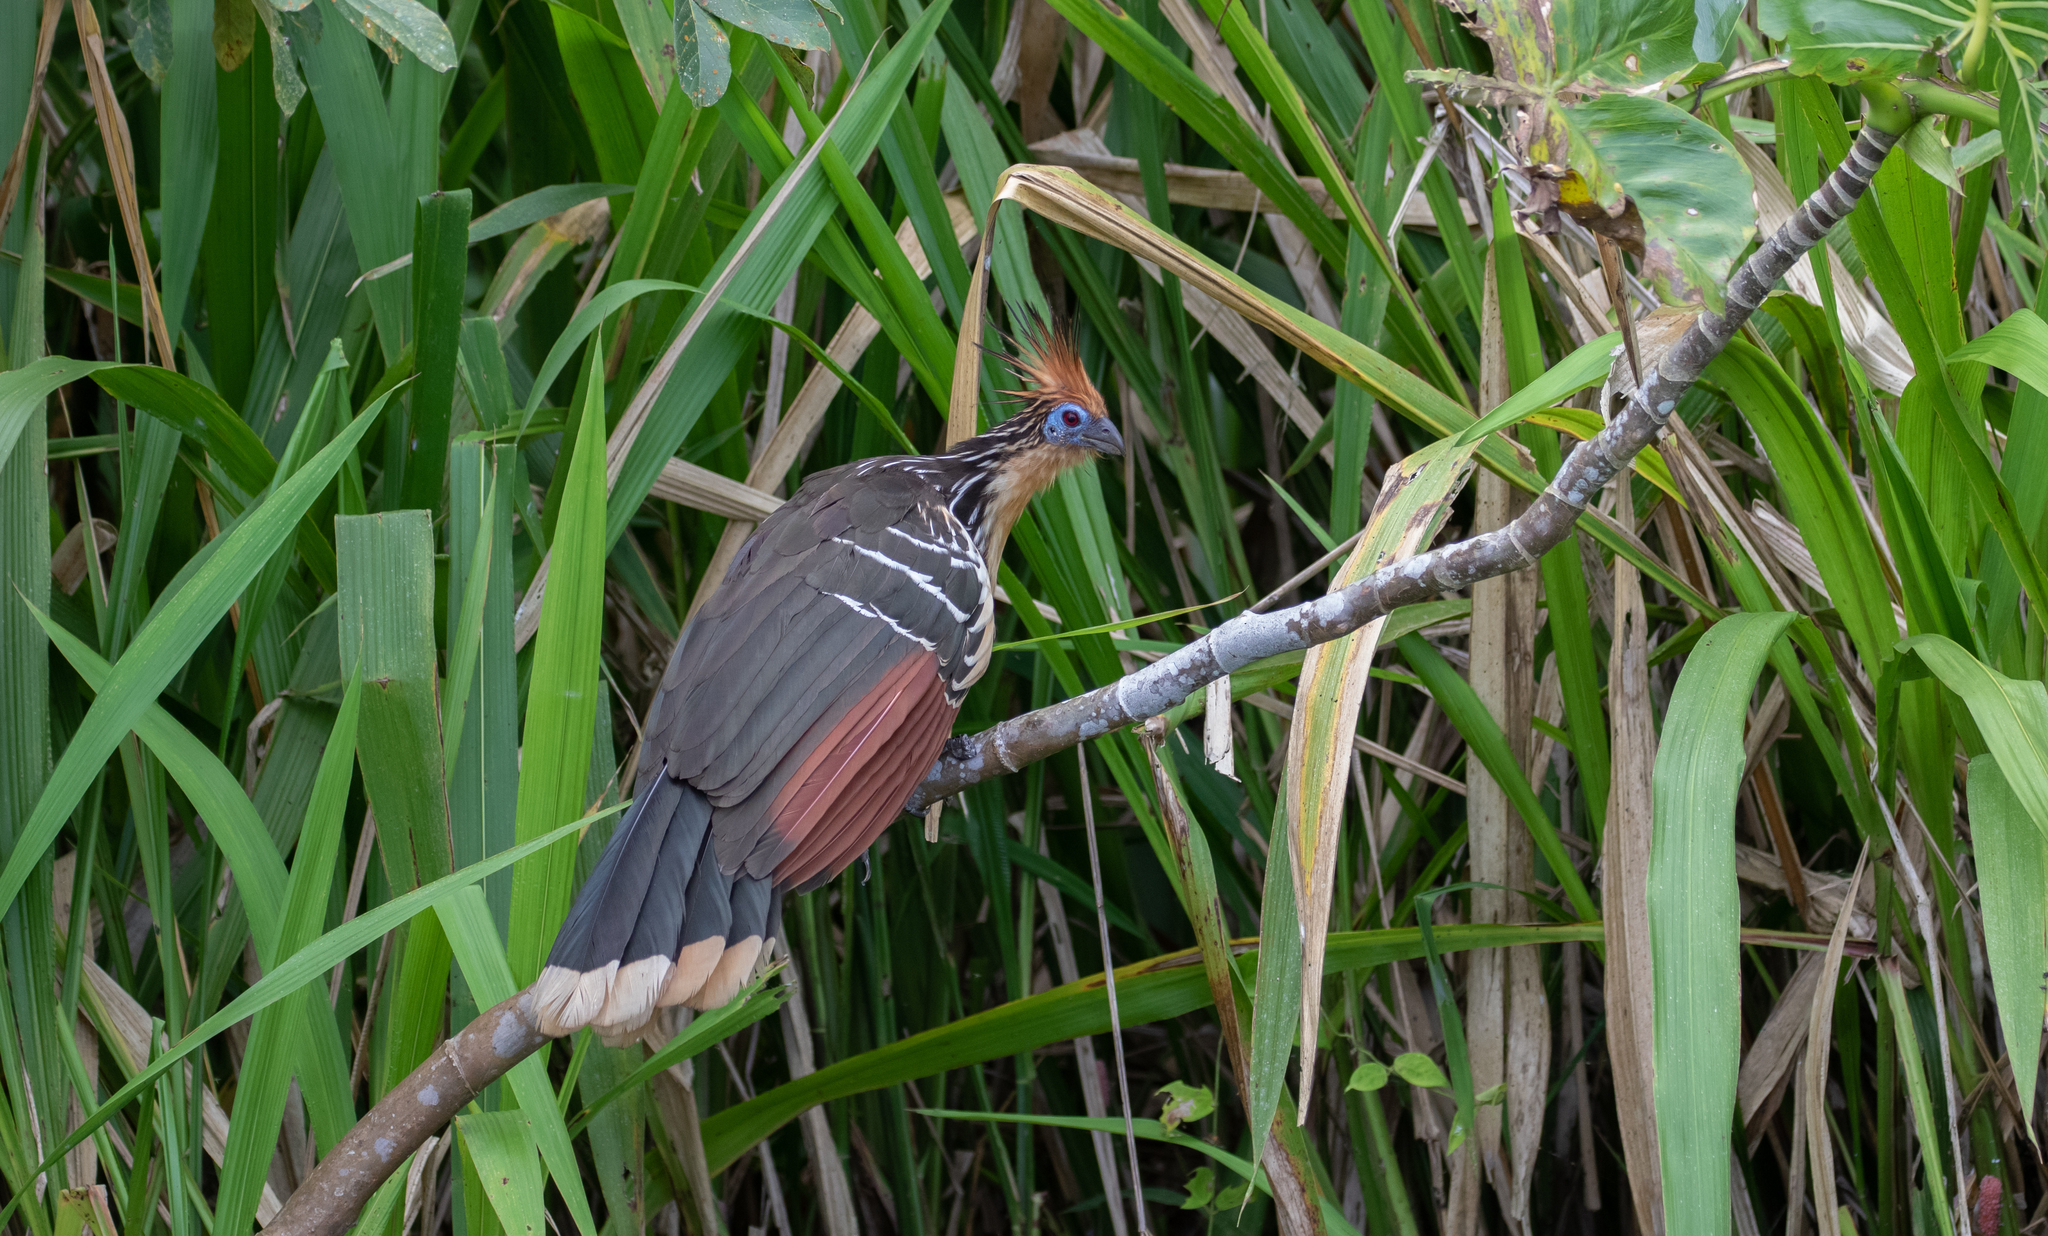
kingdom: Animalia
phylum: Chordata
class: Aves
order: Opisthocomiformes
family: Opisthocomidae
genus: Opisthocomus
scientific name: Opisthocomus hoazin
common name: Hoatzin
